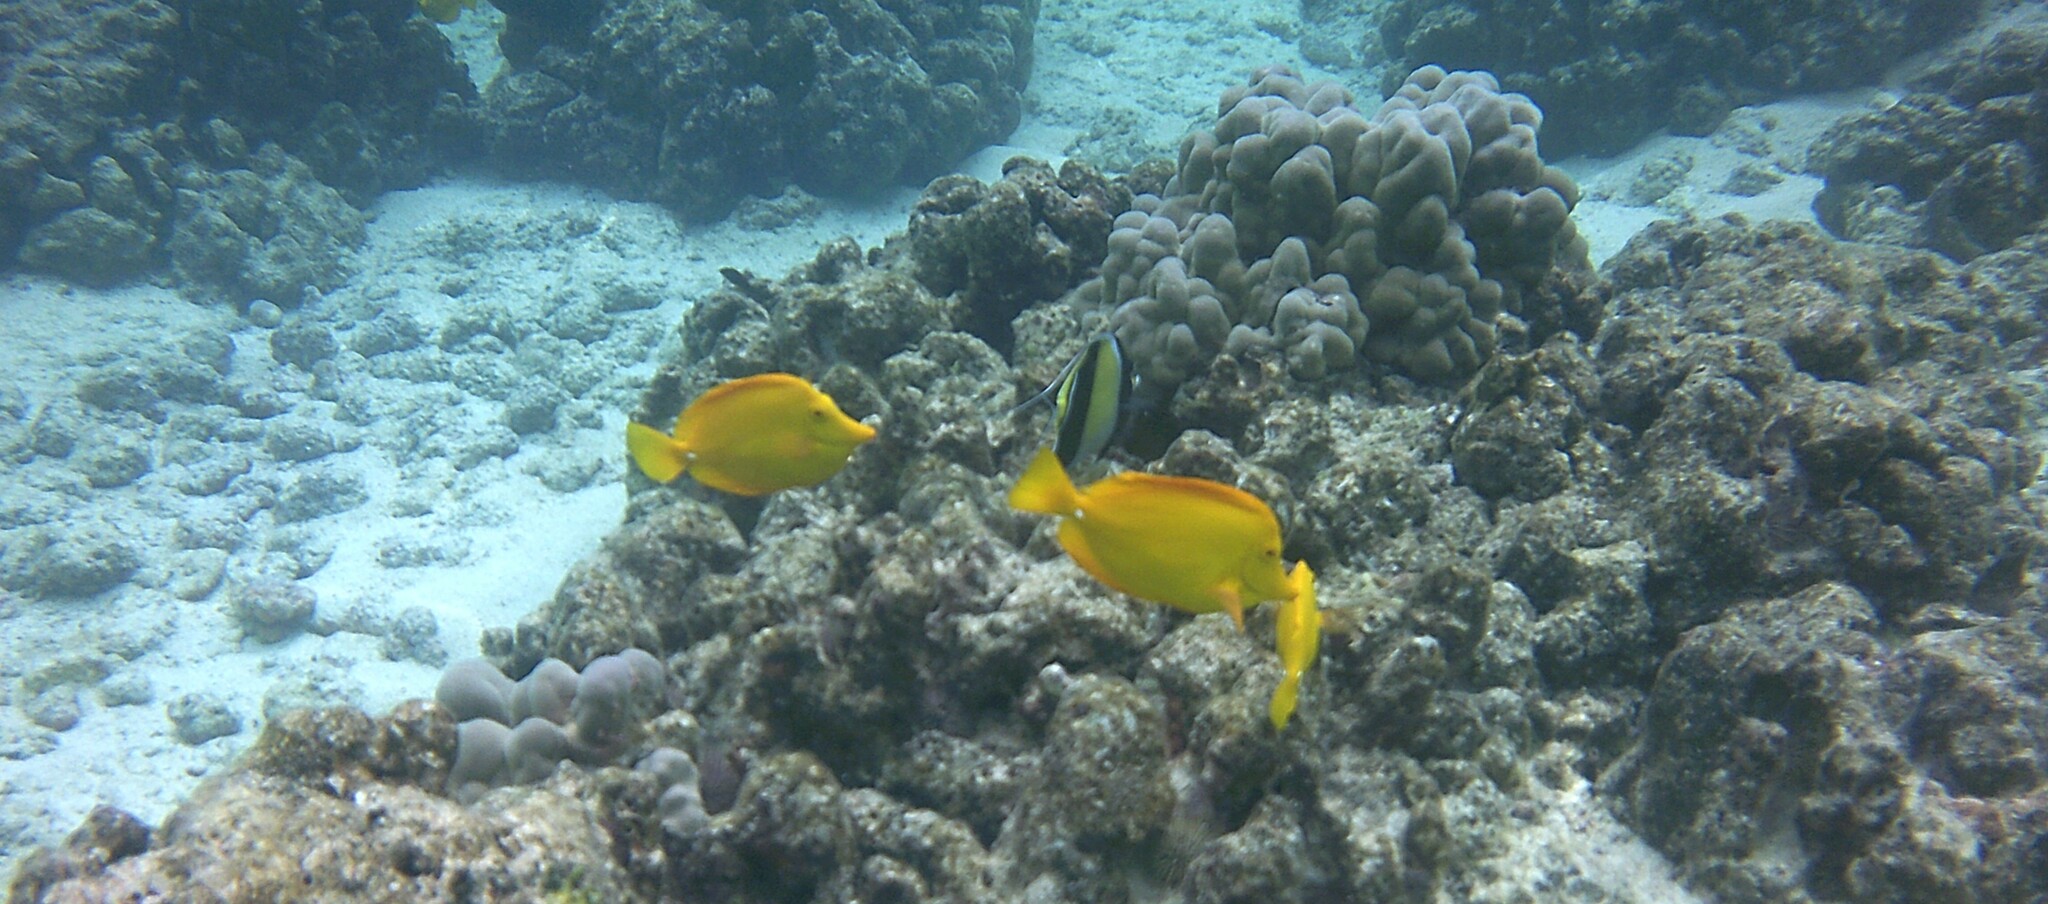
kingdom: Animalia
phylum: Chordata
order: Perciformes
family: Acanthuridae
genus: Zebrasoma
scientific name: Zebrasoma flavescens
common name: Yellow tang
